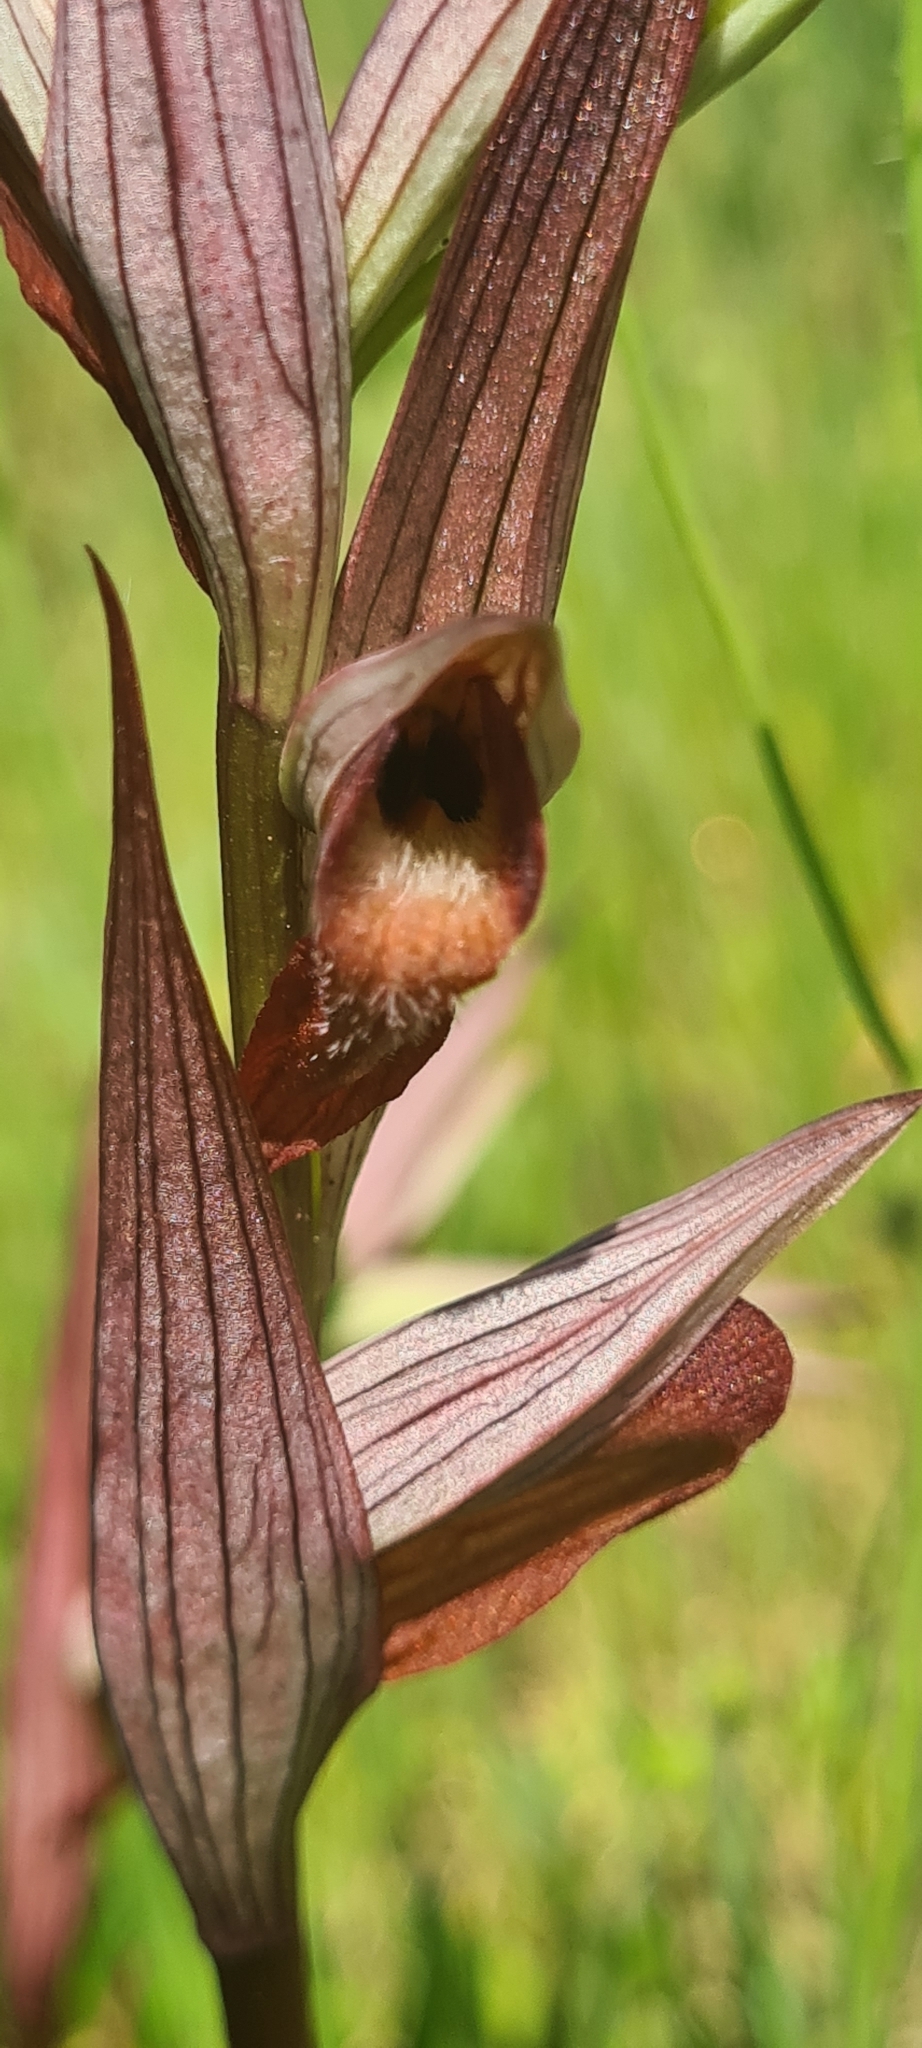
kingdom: Plantae
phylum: Tracheophyta
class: Liliopsida
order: Asparagales
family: Orchidaceae
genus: Serapias
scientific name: Serapias vomeracea
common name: Long-lipped tongue-orchid
